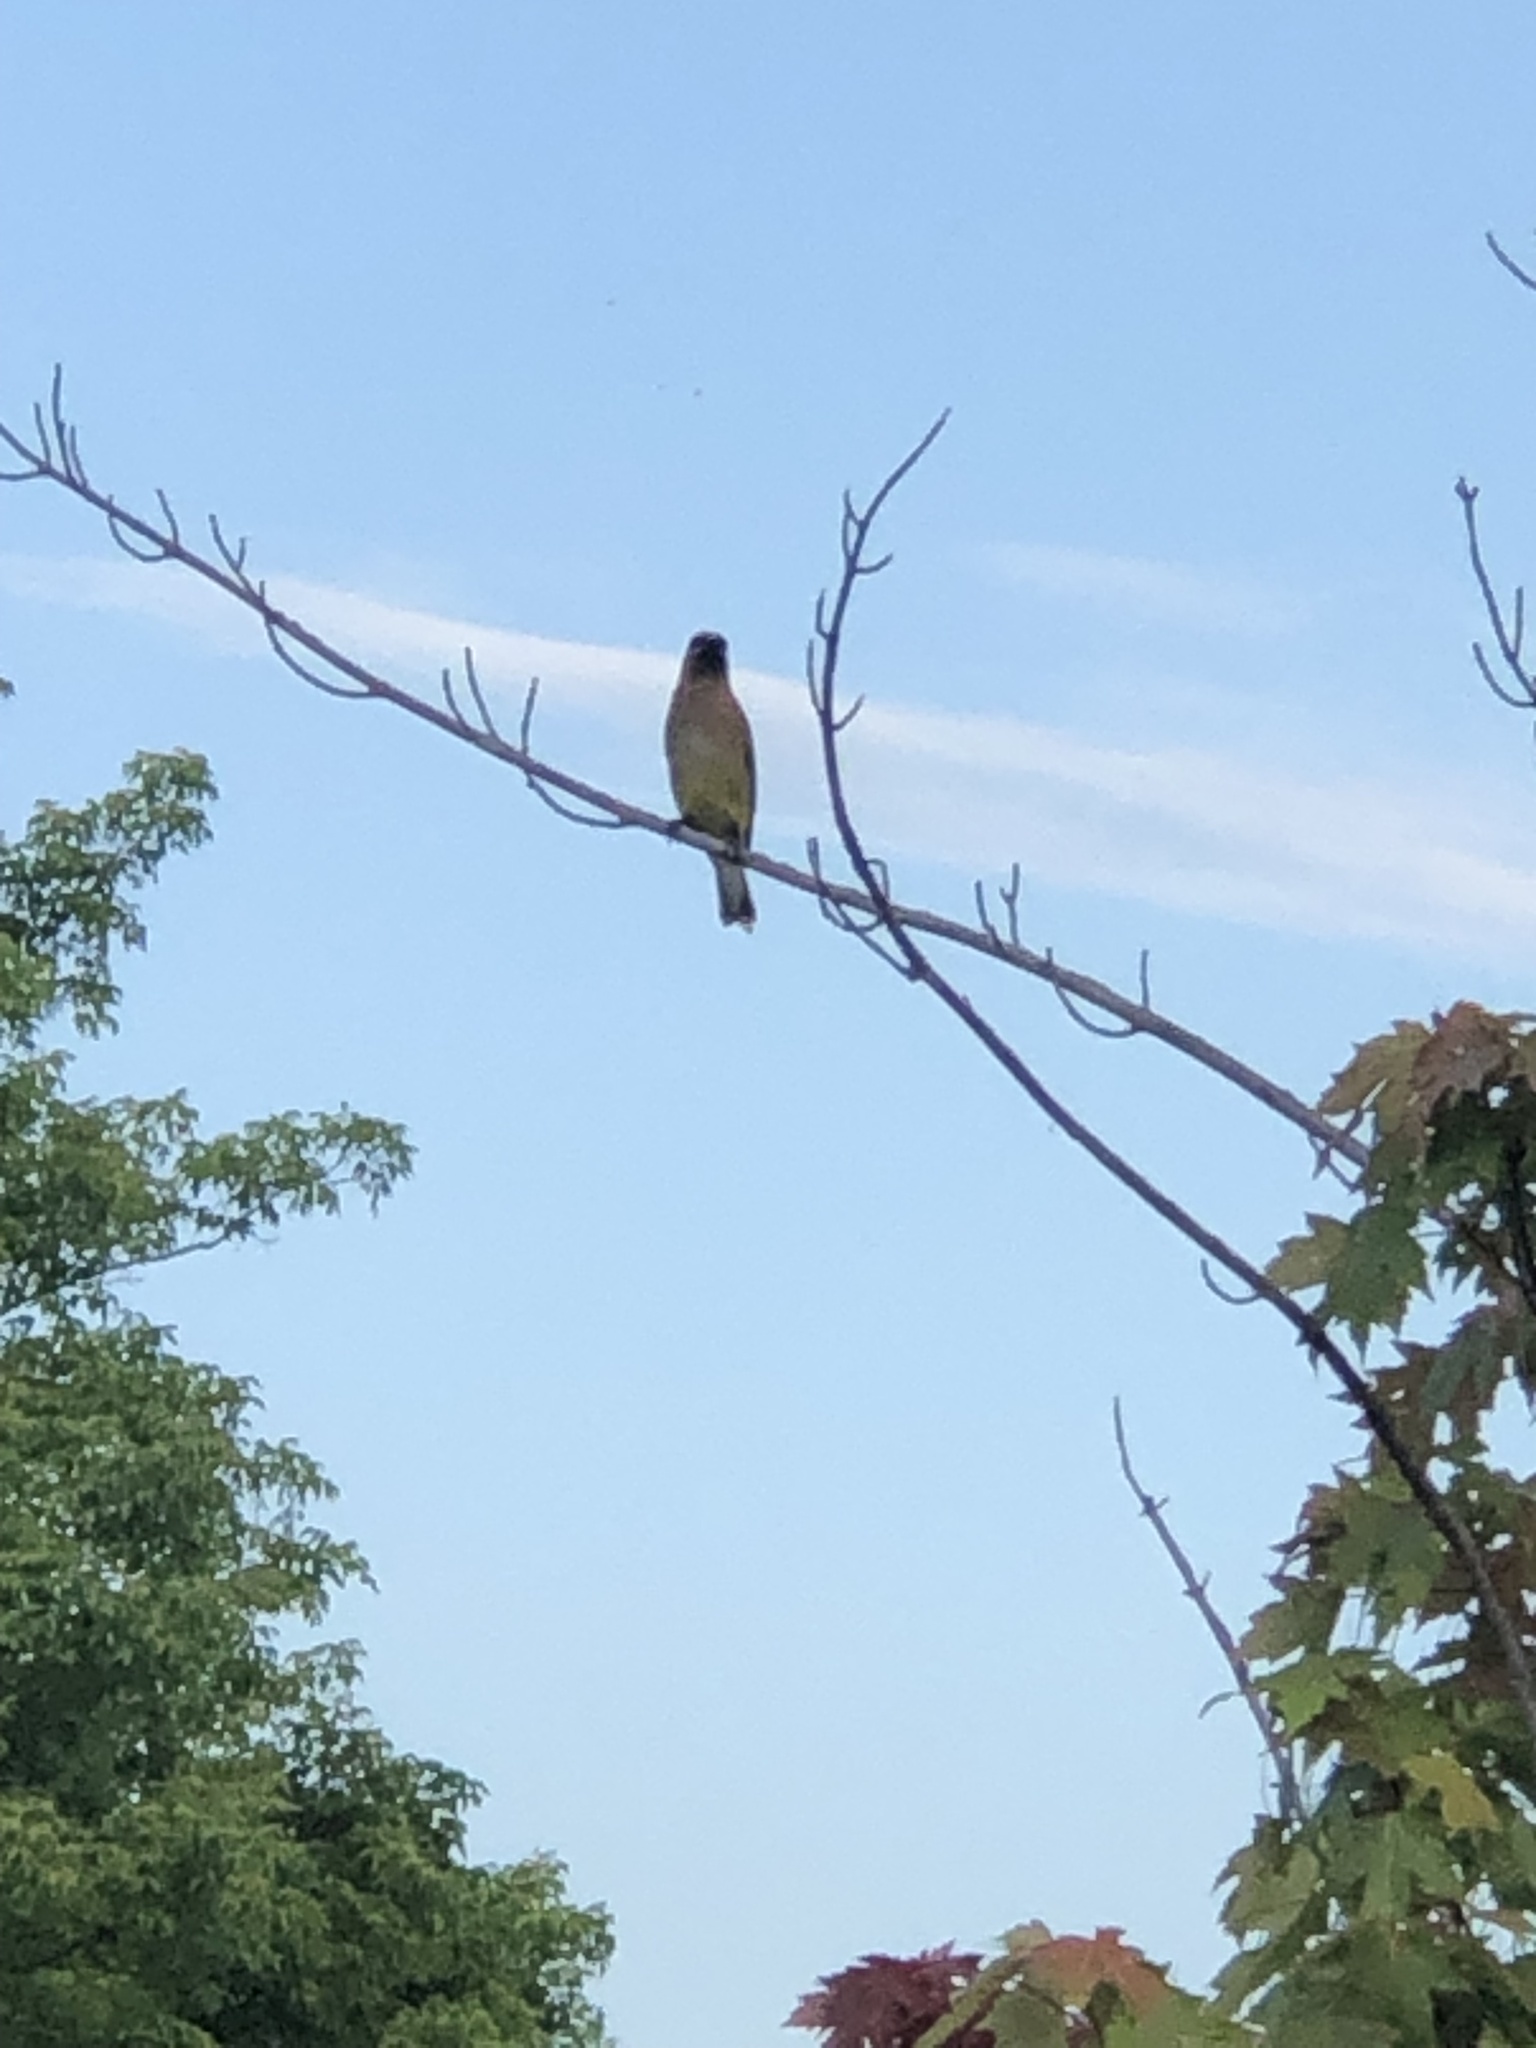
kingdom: Animalia
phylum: Chordata
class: Aves
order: Passeriformes
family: Bombycillidae
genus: Bombycilla
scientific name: Bombycilla cedrorum
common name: Cedar waxwing
